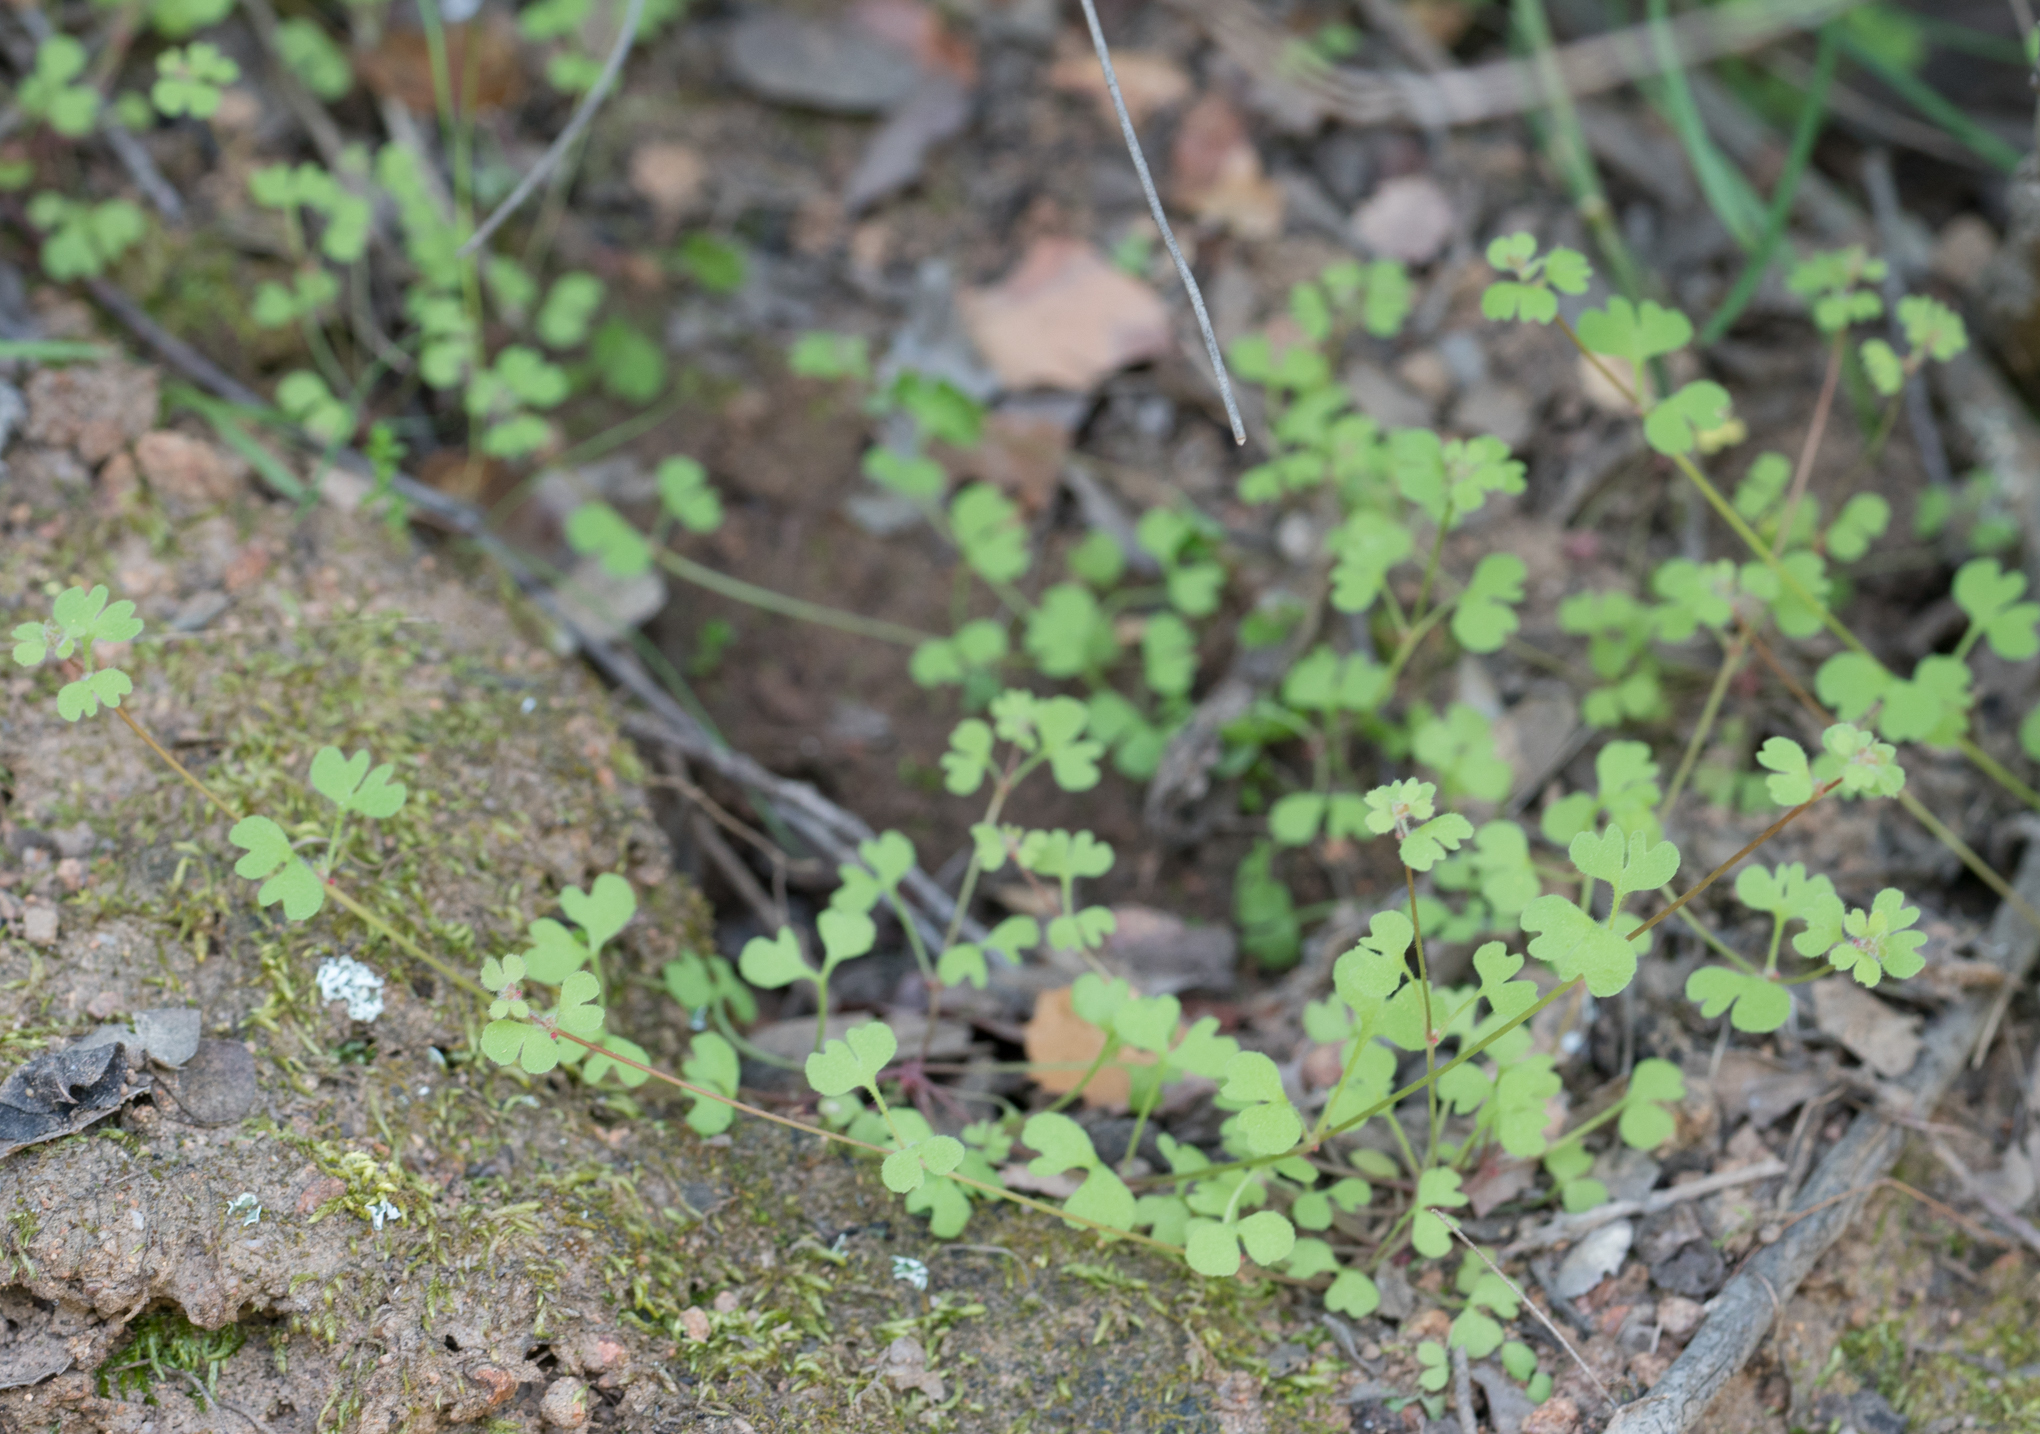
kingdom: Plantae
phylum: Tracheophyta
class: Magnoliopsida
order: Caryophyllales
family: Polygonaceae
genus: Pterostegia
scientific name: Pterostegia drymarioides
